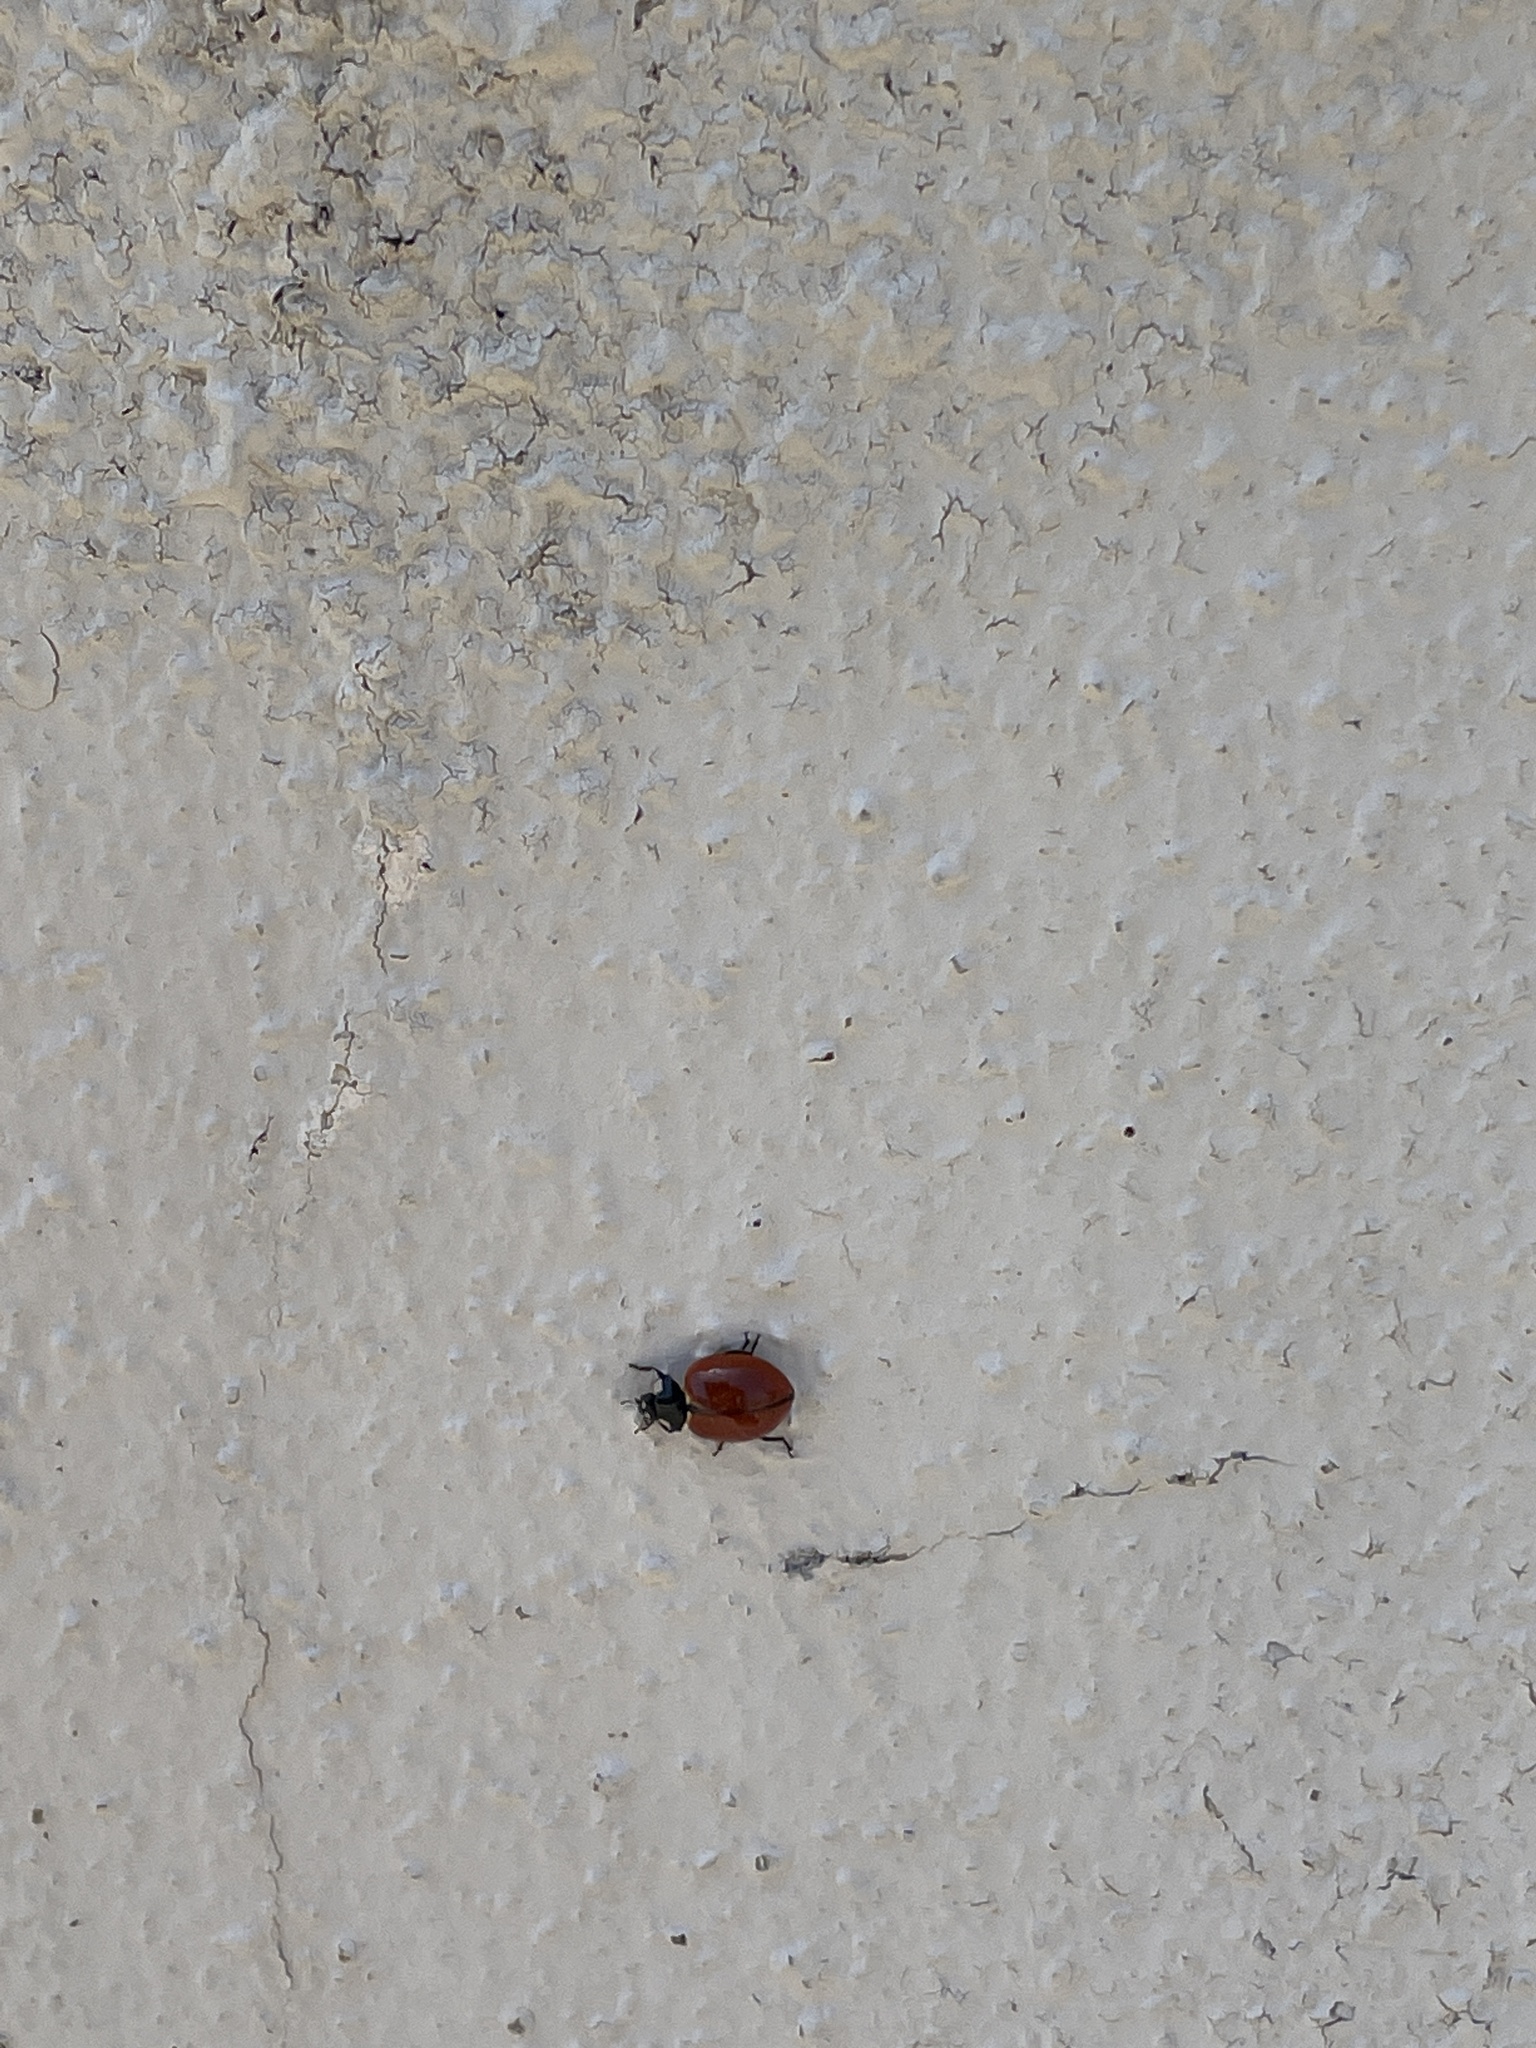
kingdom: Animalia
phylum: Arthropoda
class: Insecta
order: Coleoptera
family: Coccinellidae
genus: Coccinella
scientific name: Coccinella californica
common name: Lady beetle
